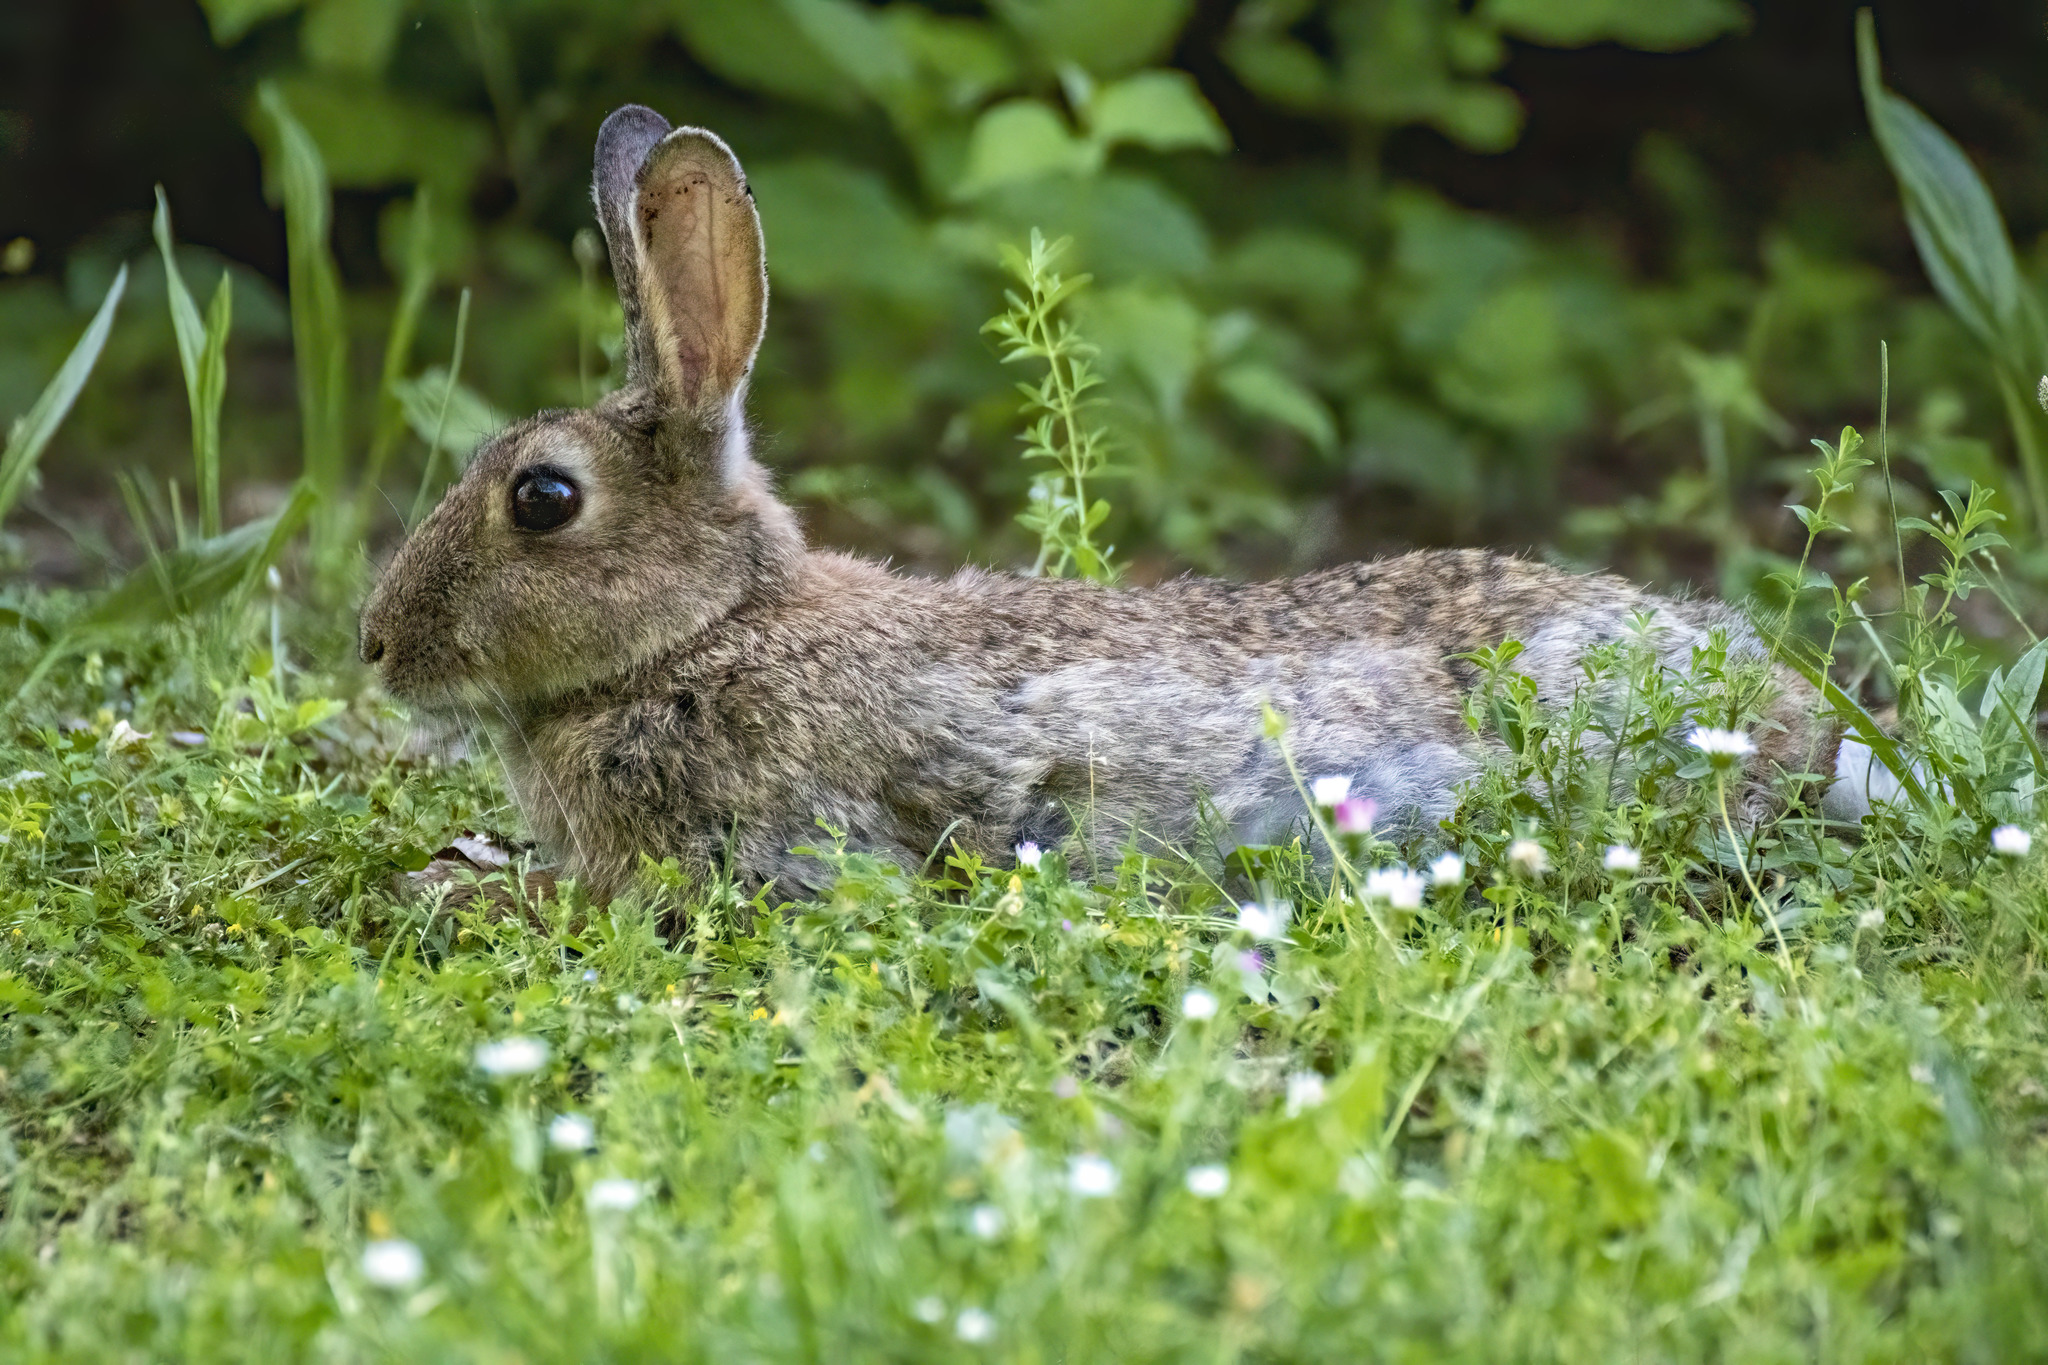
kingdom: Animalia
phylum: Chordata
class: Mammalia
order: Lagomorpha
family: Leporidae
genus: Oryctolagus
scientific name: Oryctolagus cuniculus
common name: European rabbit
